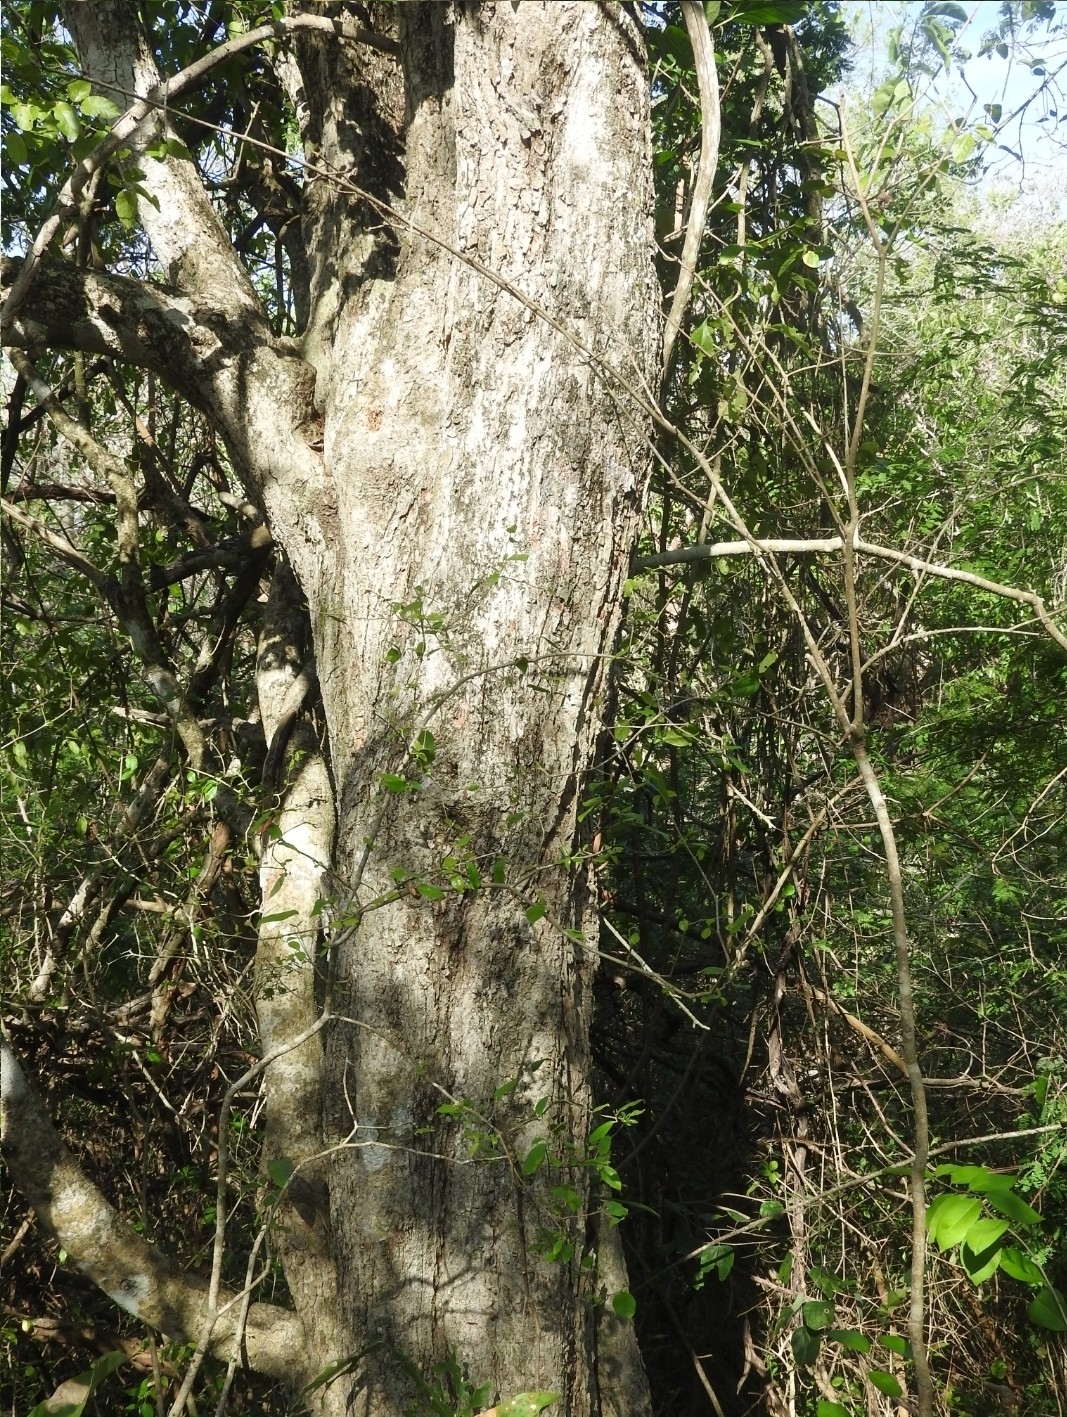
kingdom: Plantae
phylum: Tracheophyta
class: Magnoliopsida
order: Fabales
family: Fabaceae
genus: Pithecellobium
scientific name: Pithecellobium lanceolatum
